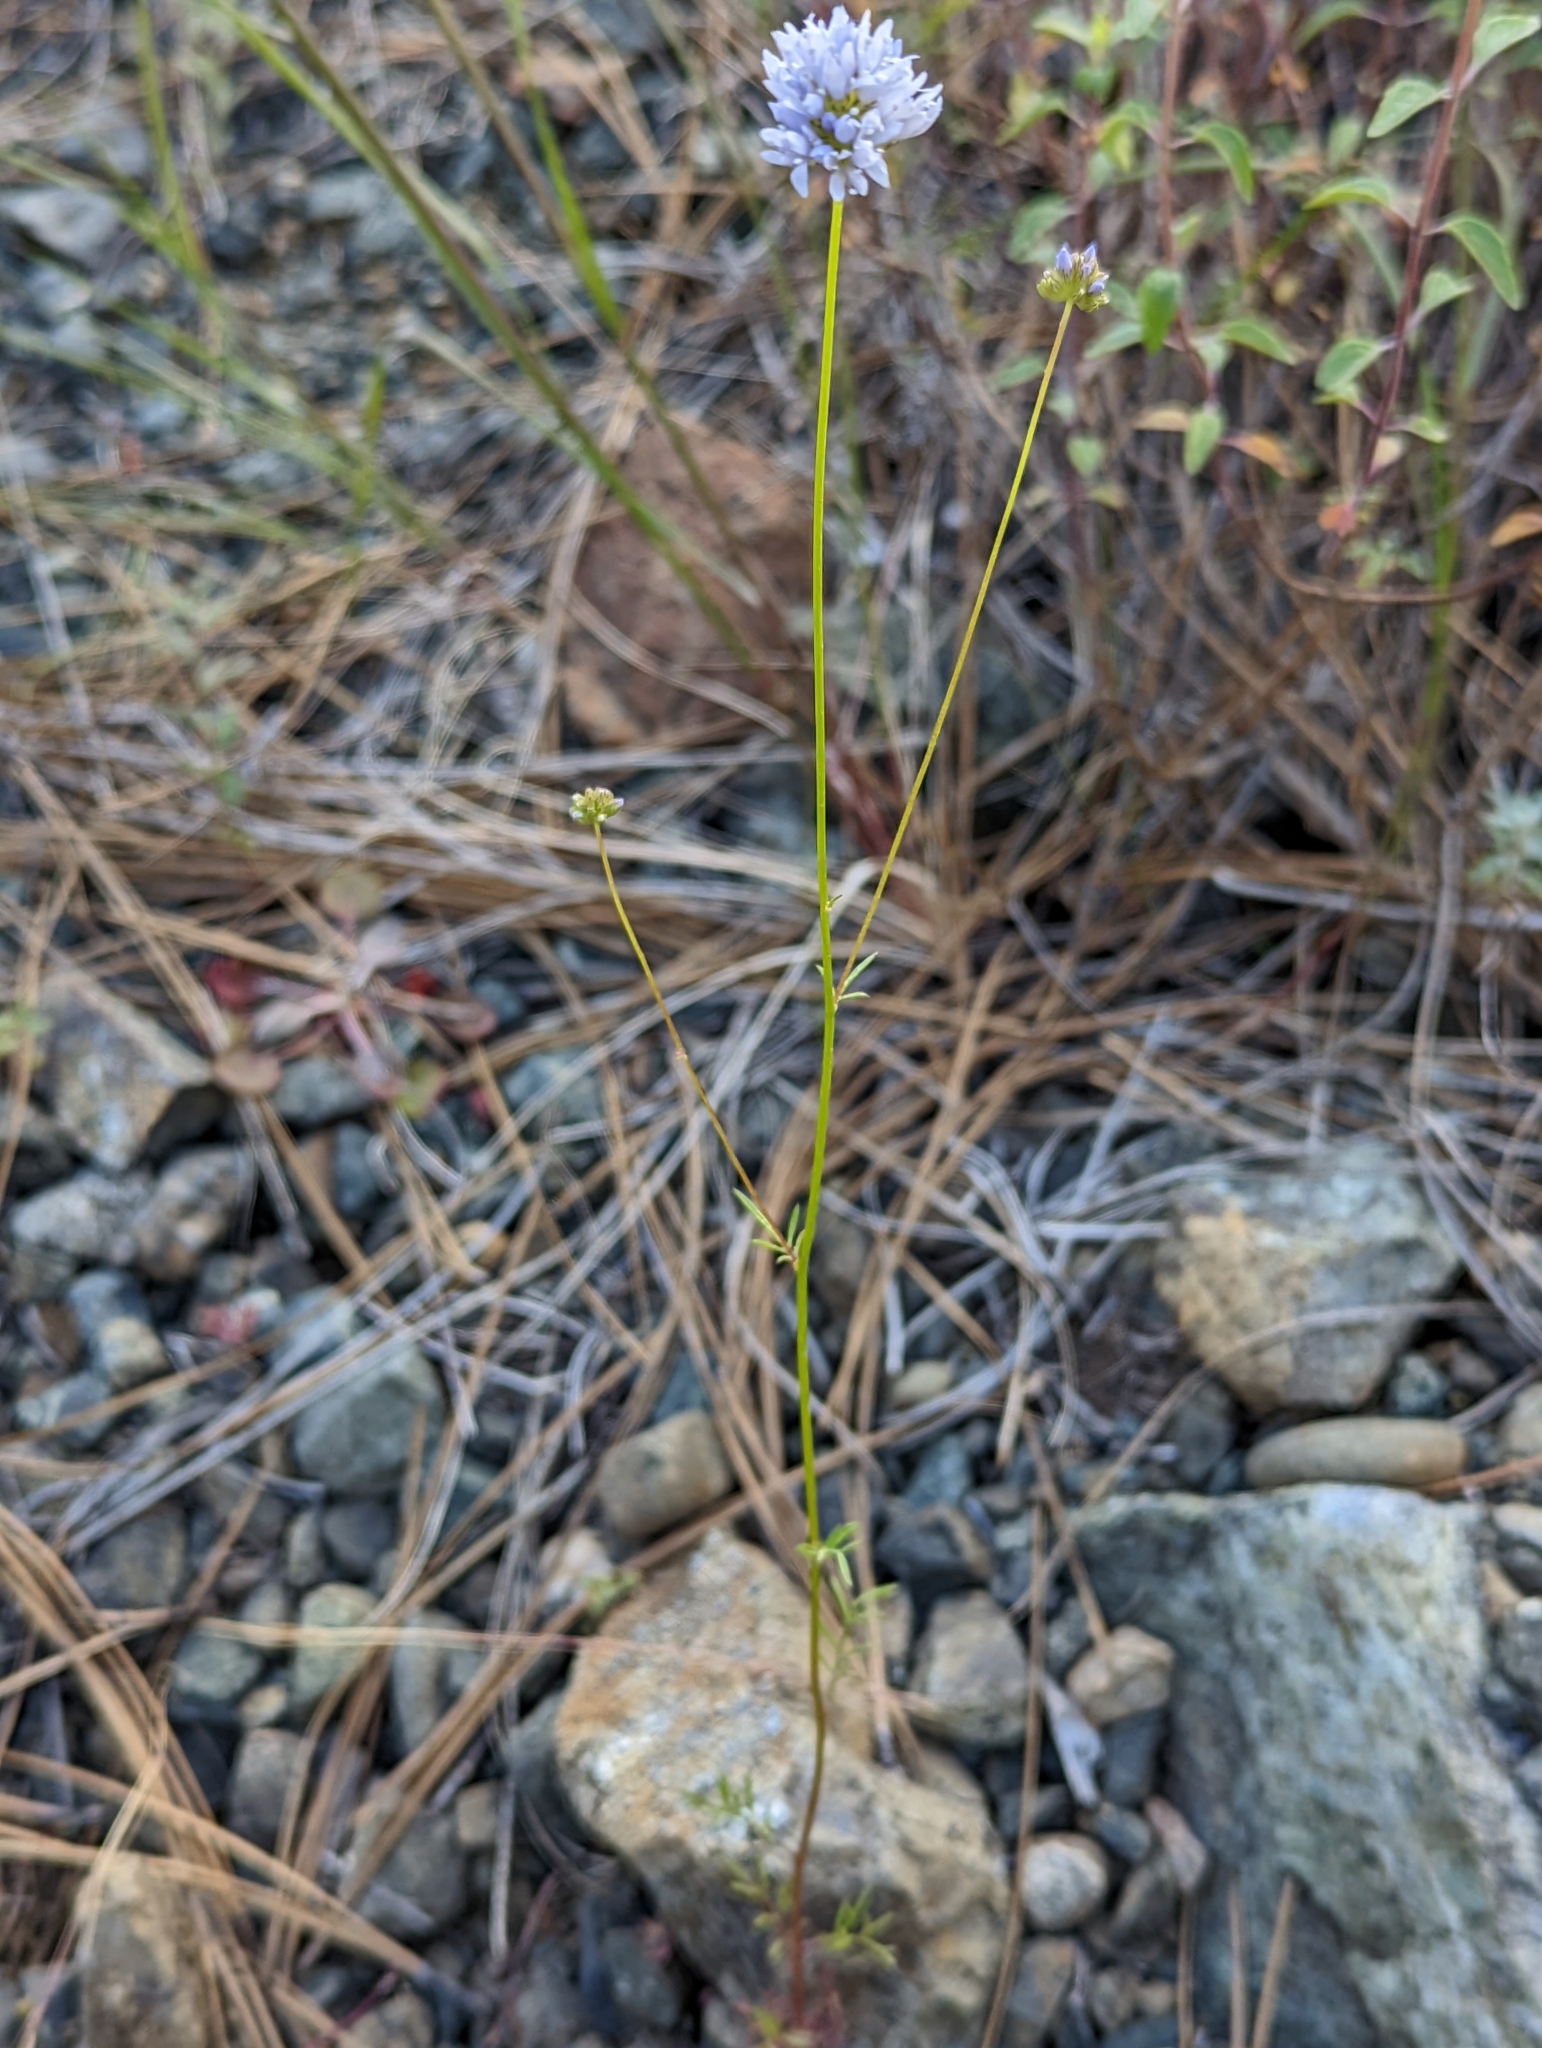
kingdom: Plantae
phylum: Tracheophyta
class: Magnoliopsida
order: Ericales
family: Polemoniaceae
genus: Gilia
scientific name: Gilia capitata
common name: Bluehead gilia
